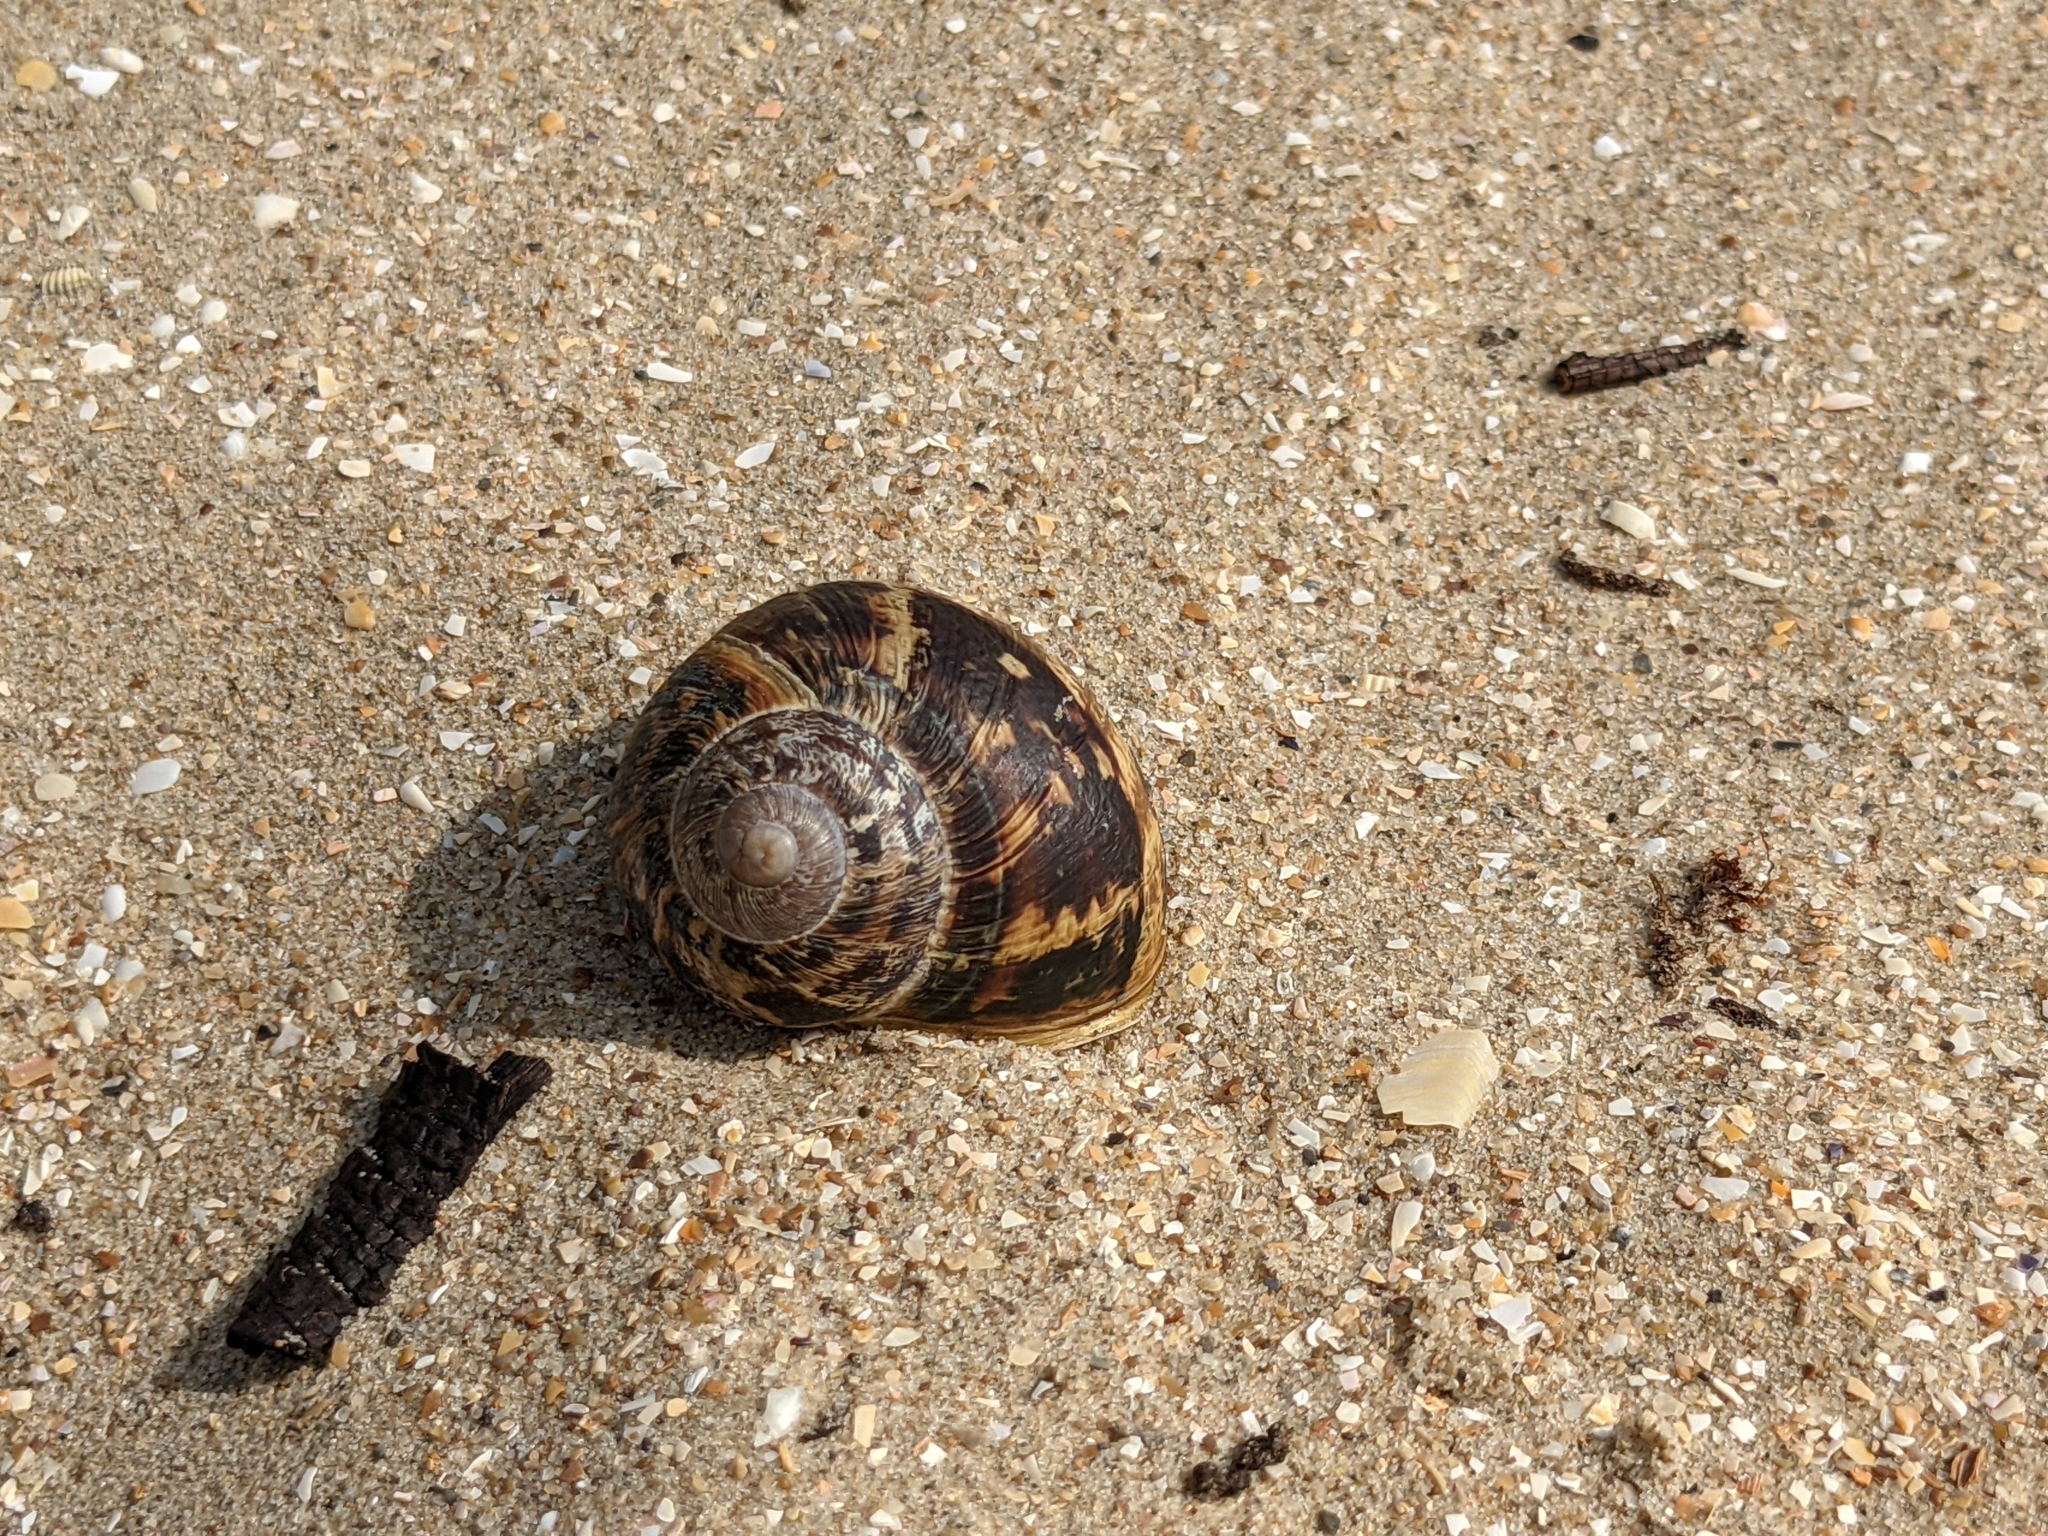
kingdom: Animalia
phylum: Mollusca
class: Gastropoda
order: Stylommatophora
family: Helicidae
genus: Cornu
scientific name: Cornu aspersum
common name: Brown garden snail
